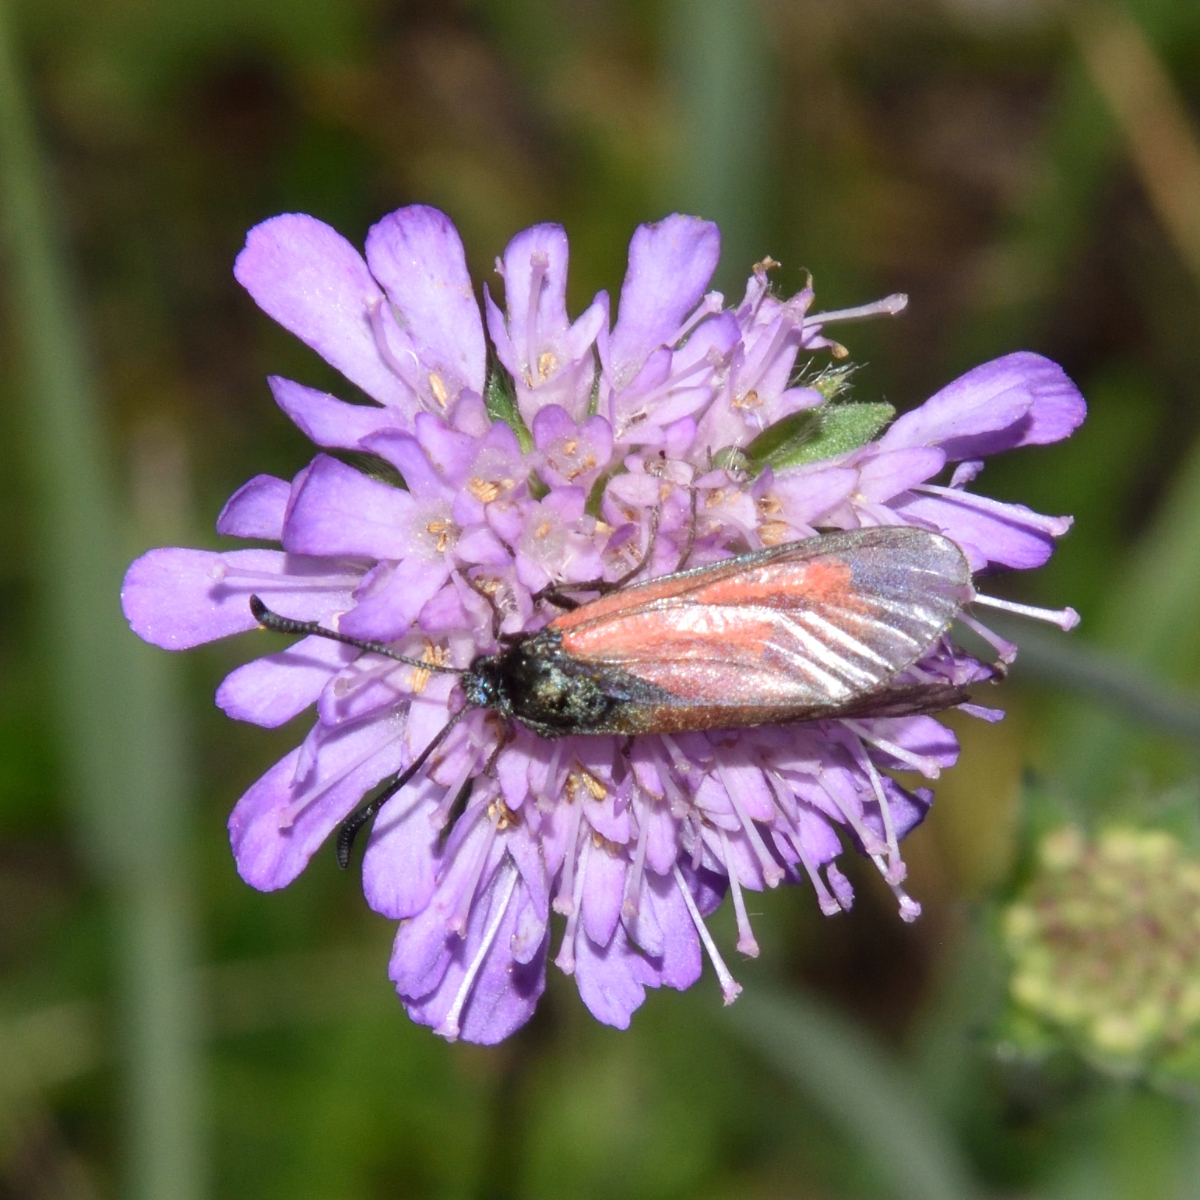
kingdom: Animalia
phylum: Arthropoda
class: Insecta
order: Lepidoptera
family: Zygaenidae
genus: Zygaena
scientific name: Zygaena minos
